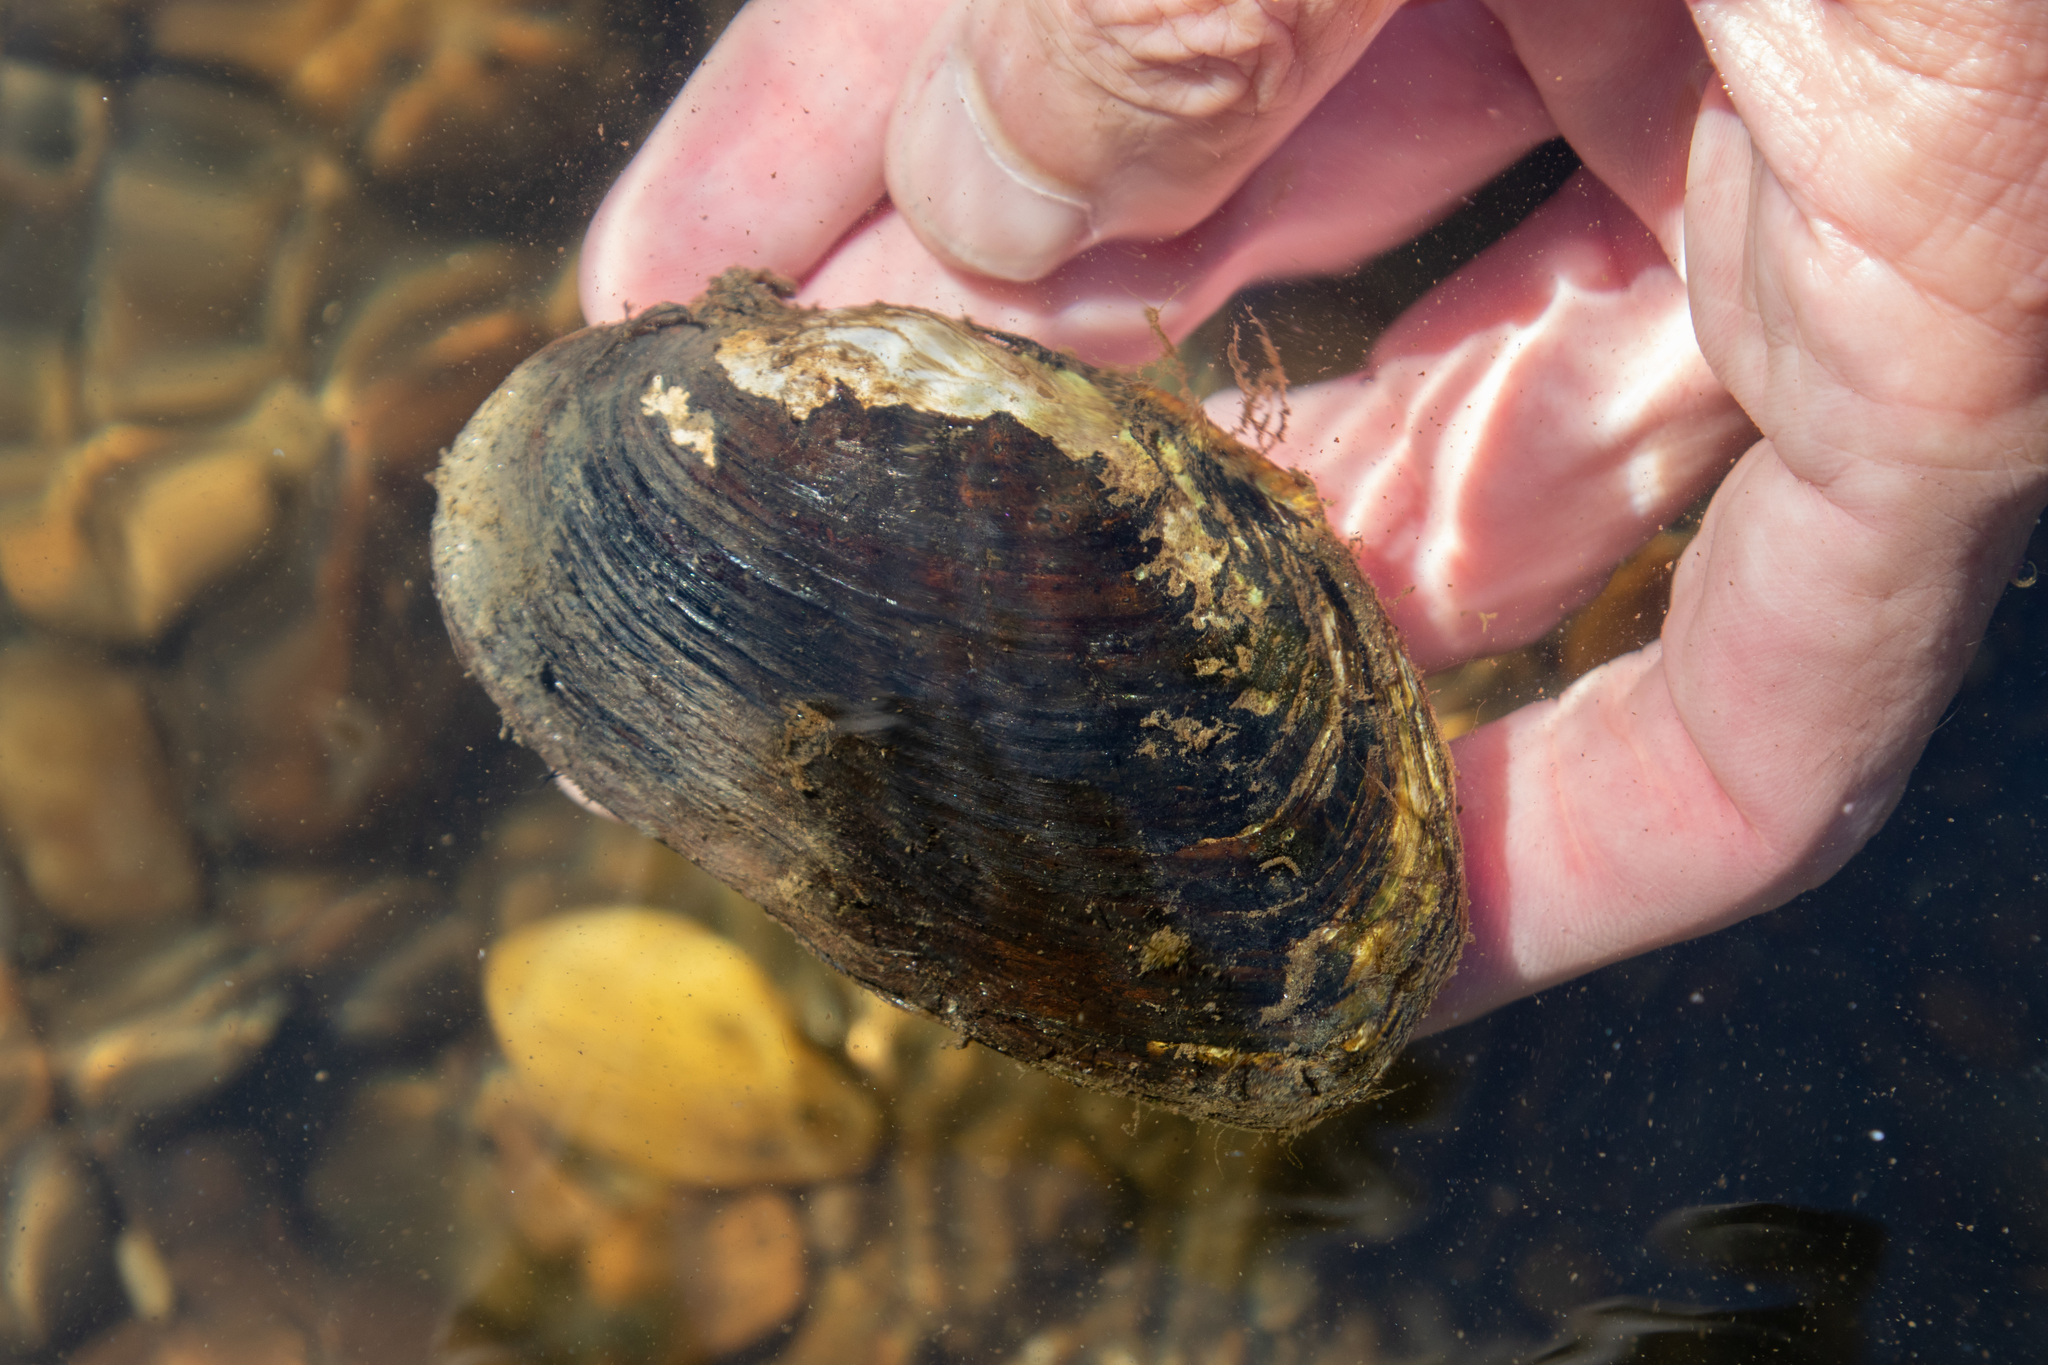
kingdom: Animalia
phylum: Mollusca
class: Bivalvia
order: Unionida
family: Unionidae
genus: Elliptio
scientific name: Elliptio complanata
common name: Eastern elliptio
